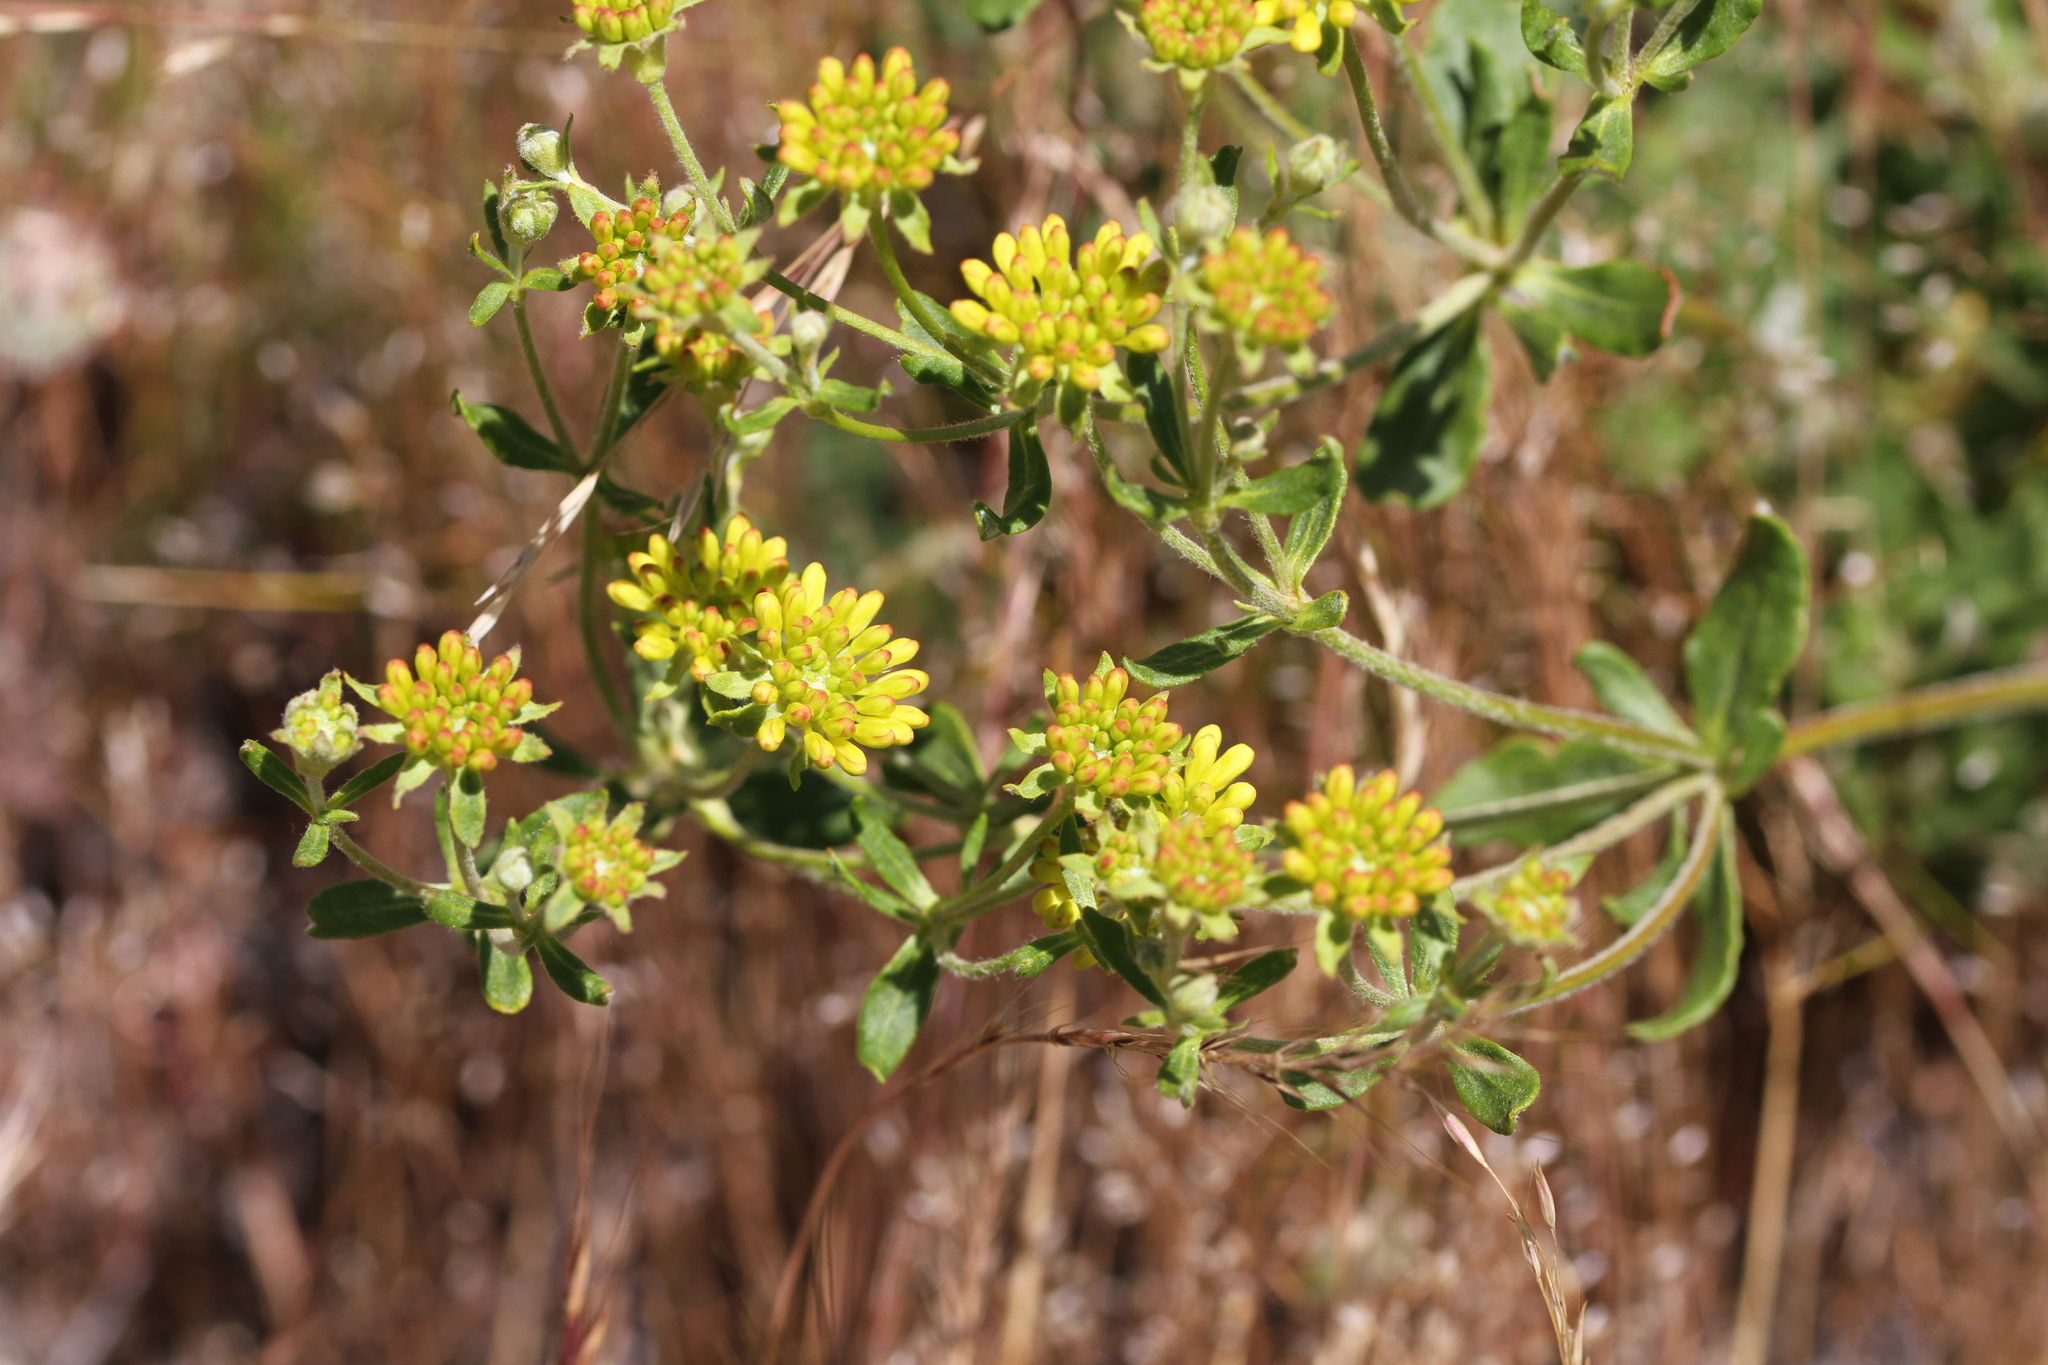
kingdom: Plantae
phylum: Tracheophyta
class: Magnoliopsida
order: Caryophyllales
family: Polygonaceae
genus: Eriogonum
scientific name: Eriogonum umbellatum
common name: Sulfur-buckwheat
